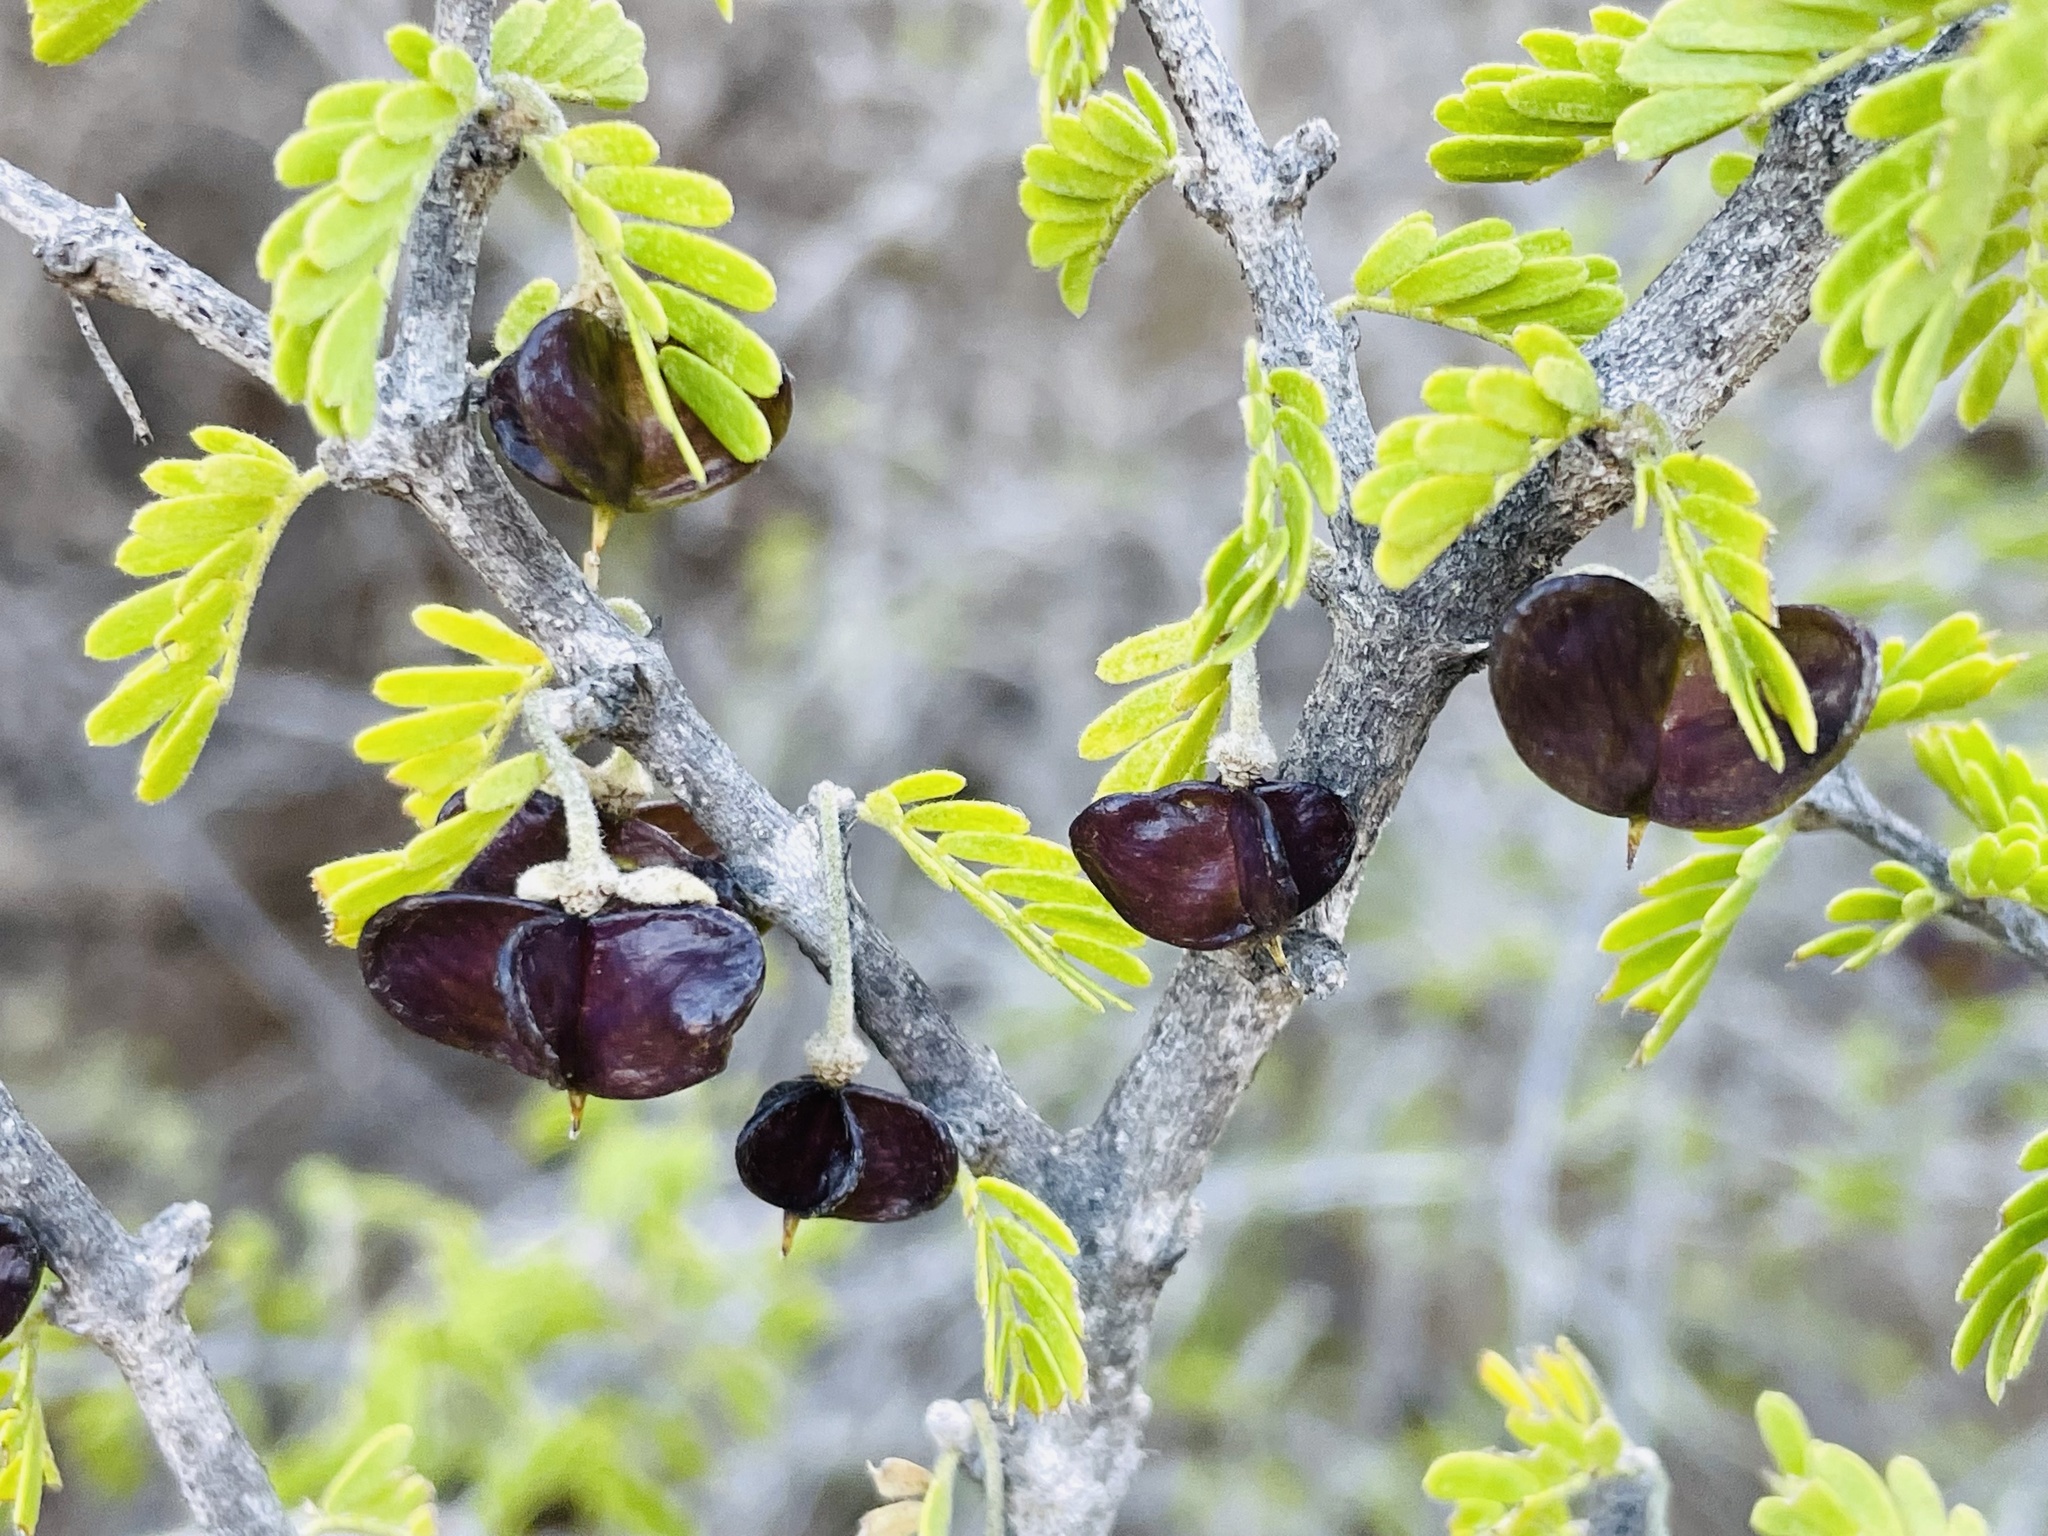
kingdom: Plantae
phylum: Tracheophyta
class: Magnoliopsida
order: Zygophyllales
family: Zygophyllaceae
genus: Porlieria
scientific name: Porlieria chilensis
